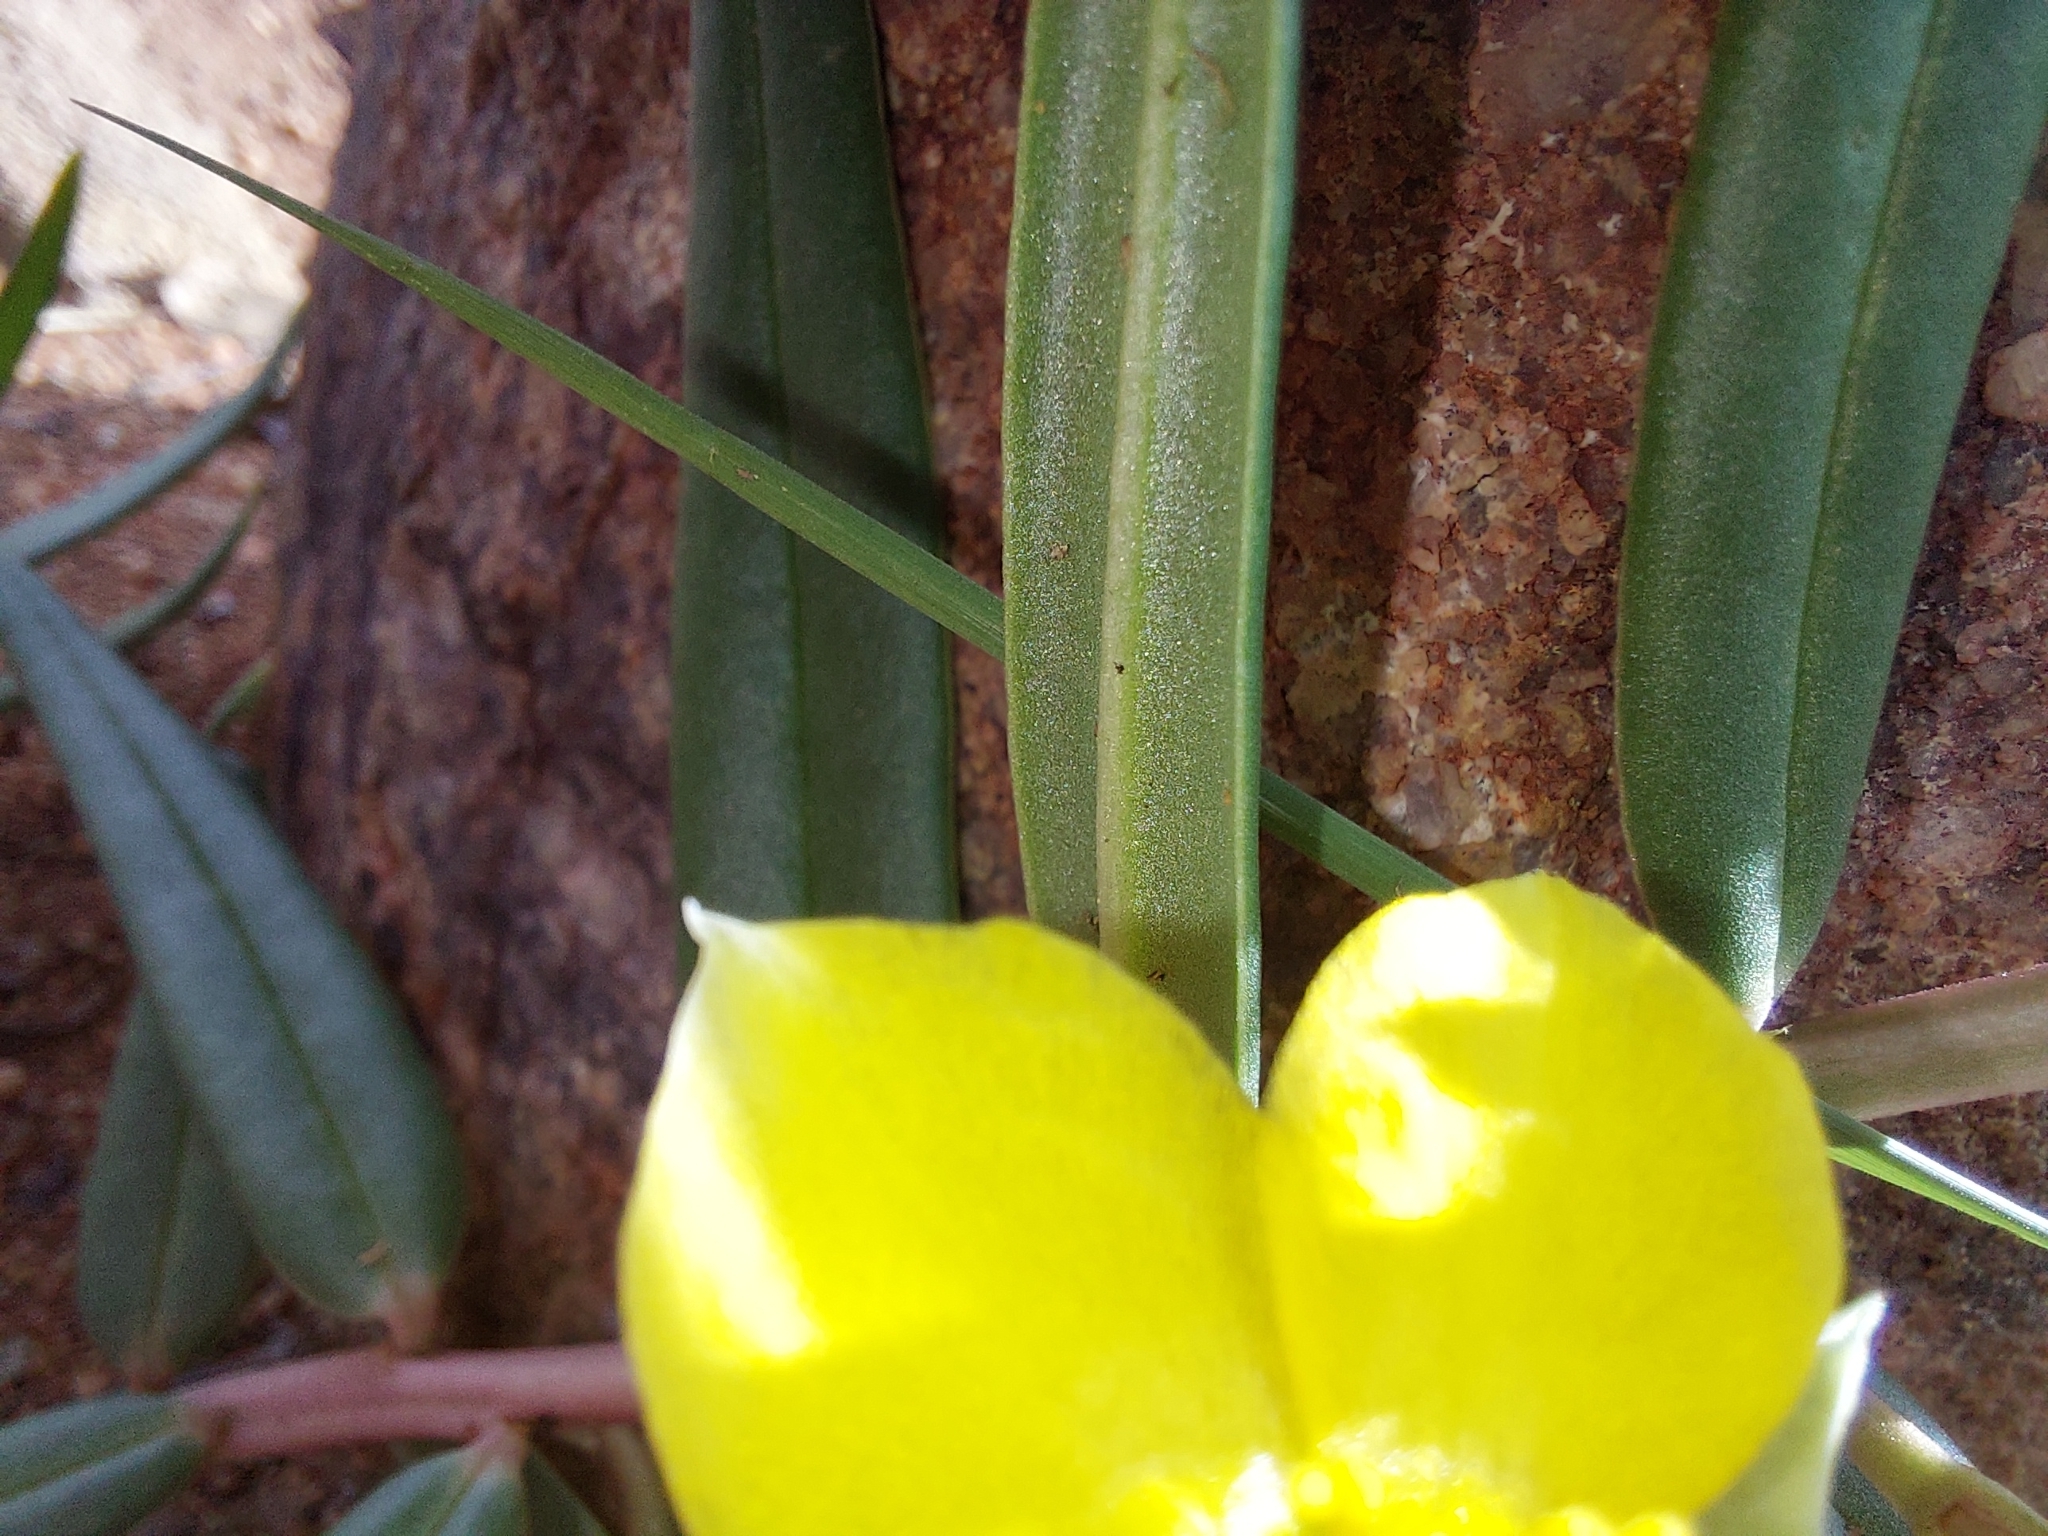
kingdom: Plantae
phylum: Tracheophyta
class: Magnoliopsida
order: Caryophyllales
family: Talinaceae
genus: Talinum
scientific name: Talinum caffrum
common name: Flameflower
